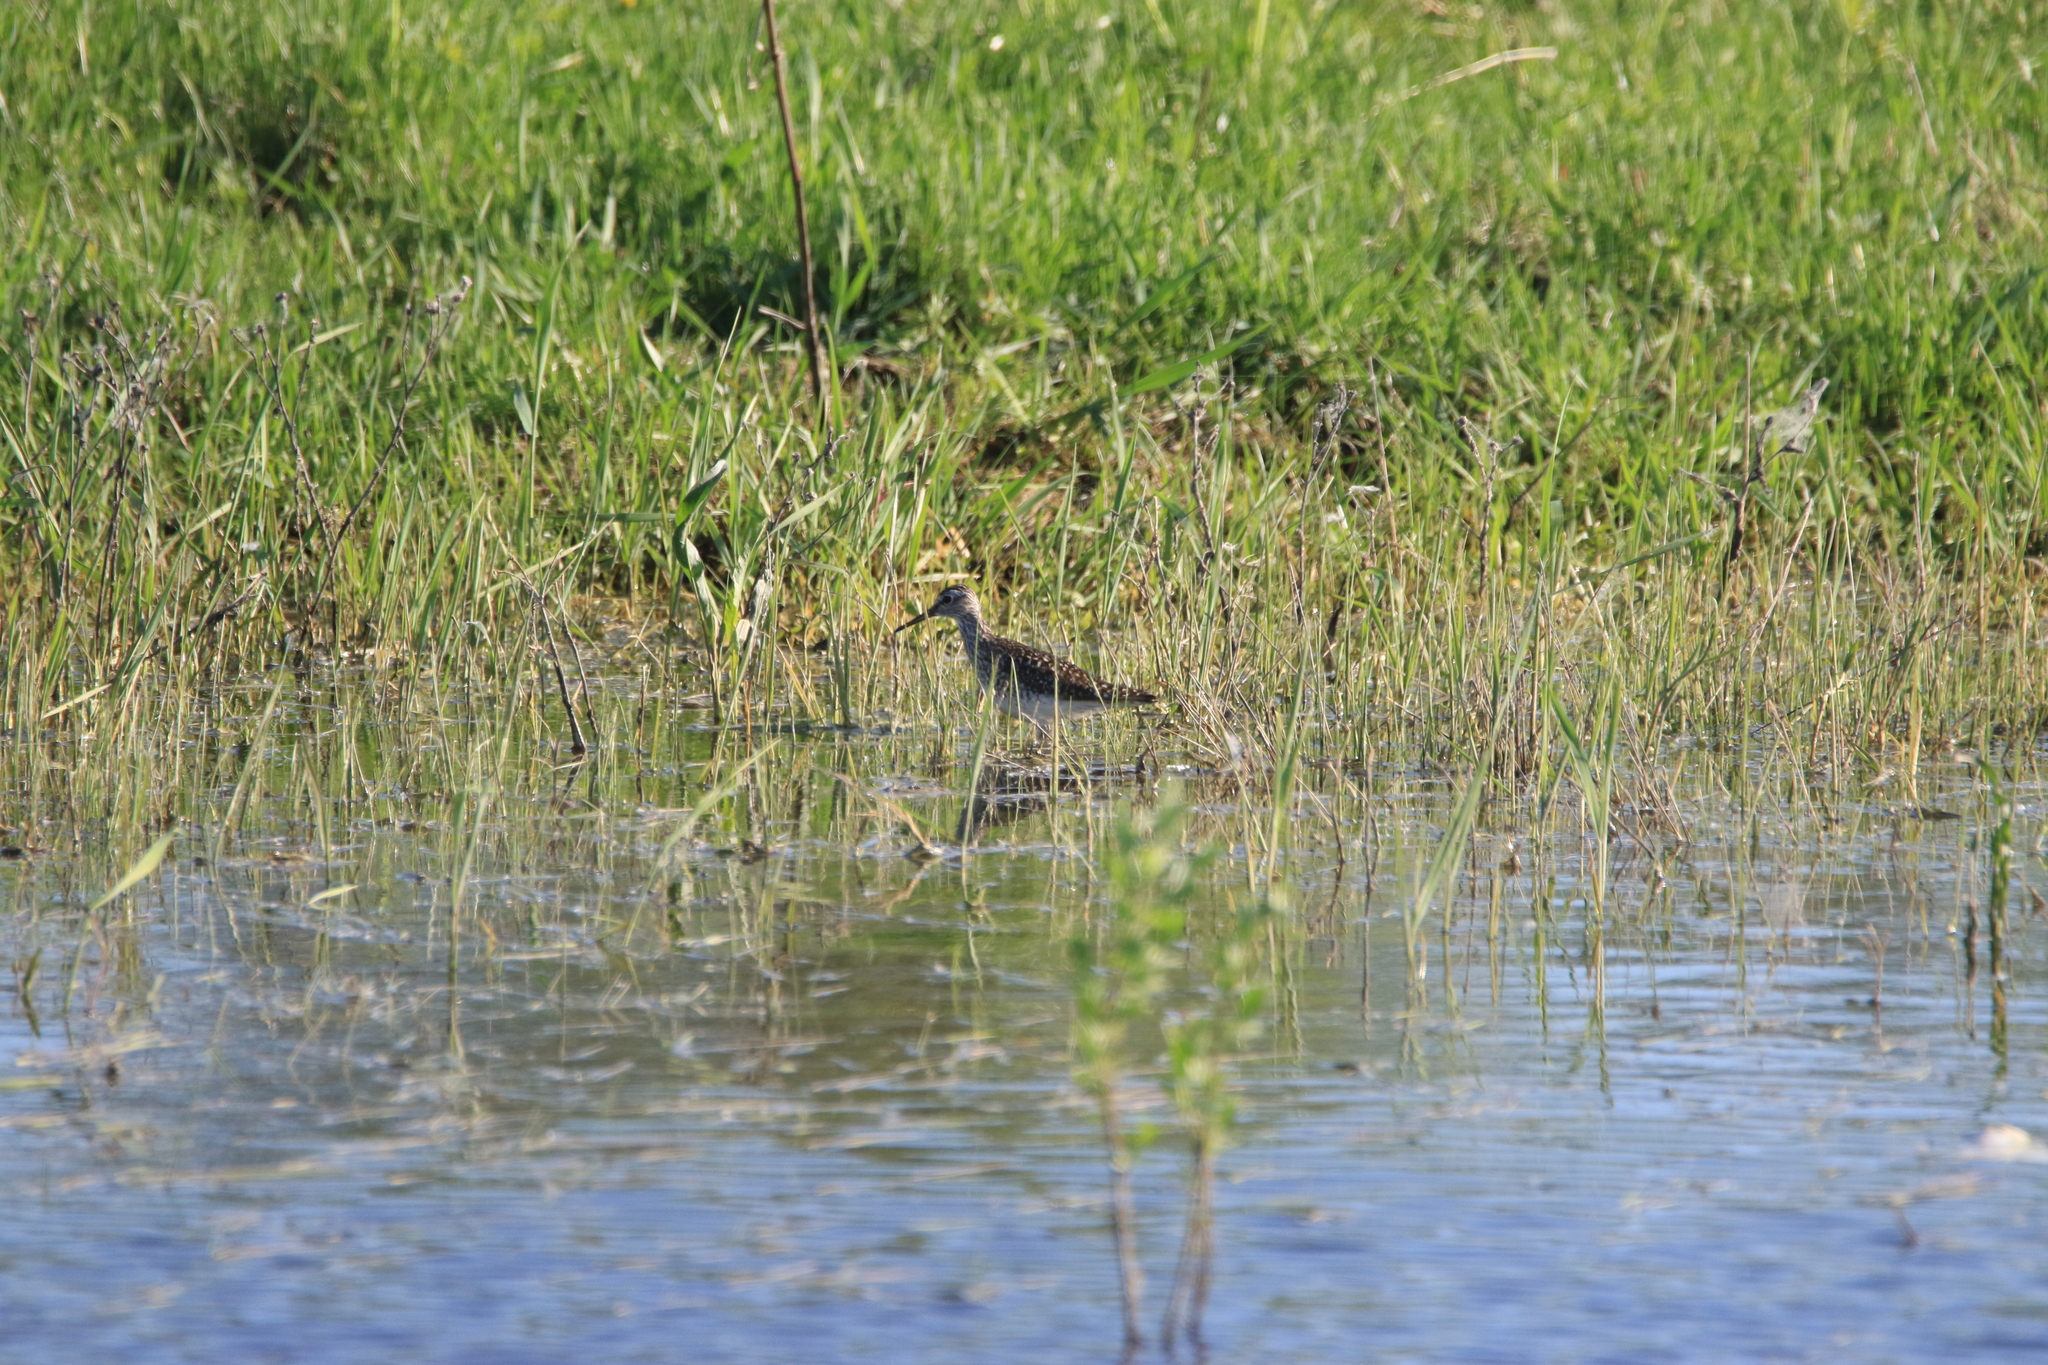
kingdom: Animalia
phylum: Chordata
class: Aves
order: Charadriiformes
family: Scolopacidae
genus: Tringa
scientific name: Tringa glareola
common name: Wood sandpiper
